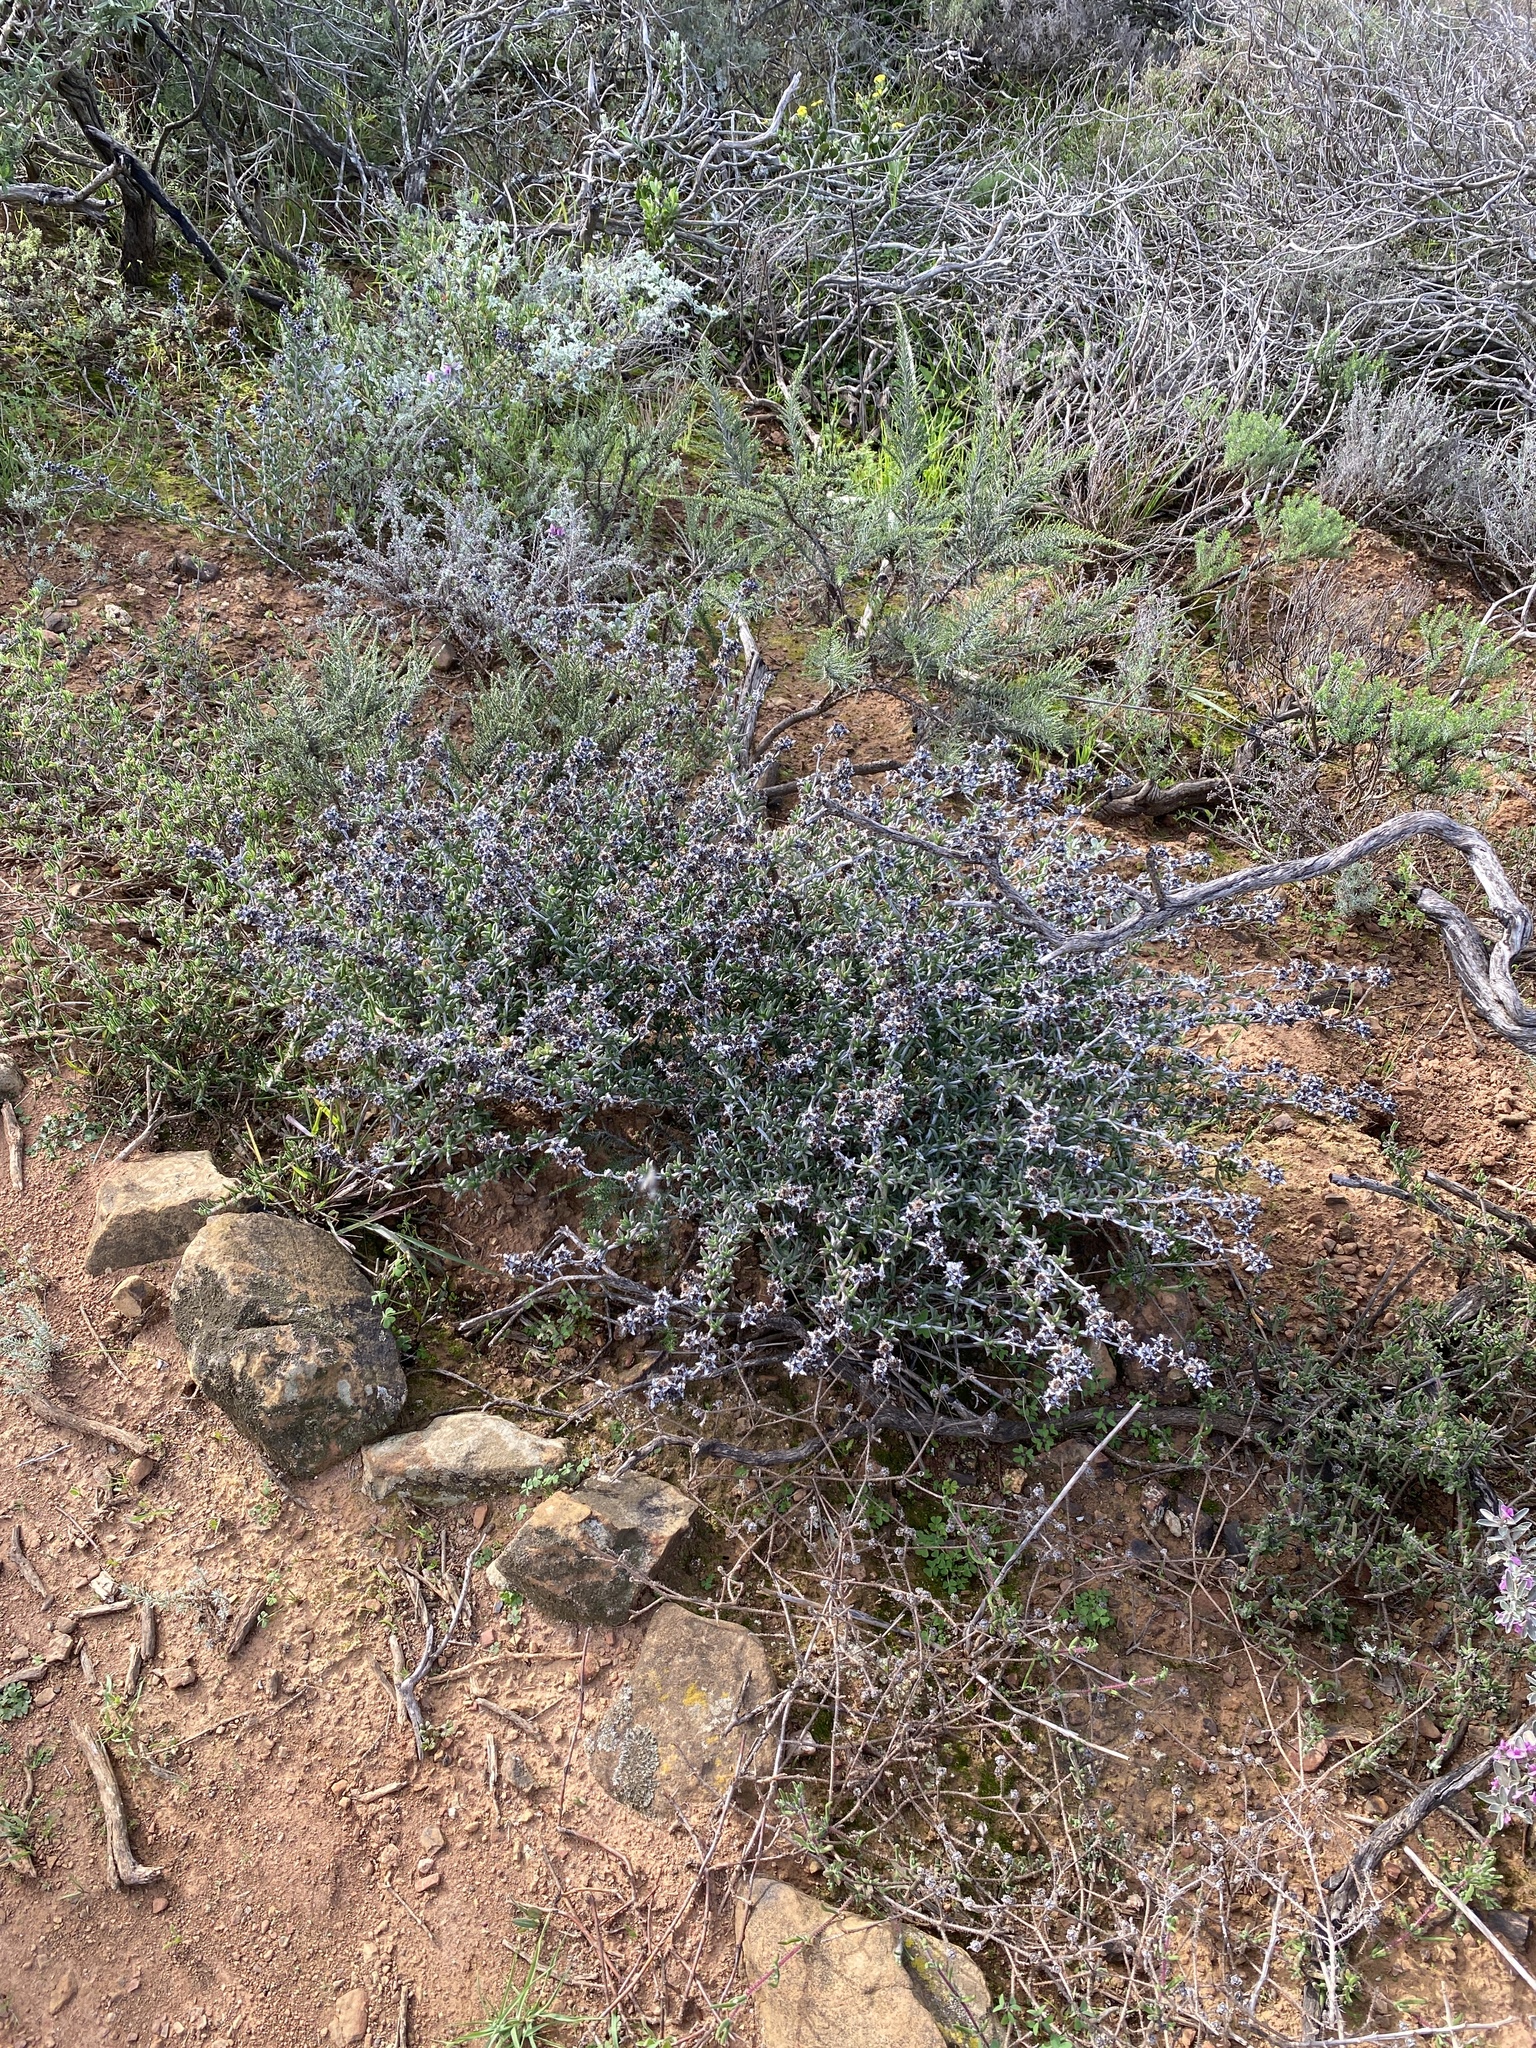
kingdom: Plantae
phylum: Tracheophyta
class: Magnoliopsida
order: Caryophyllales
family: Aizoaceae
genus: Erepsia
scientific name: Erepsia bracteata
